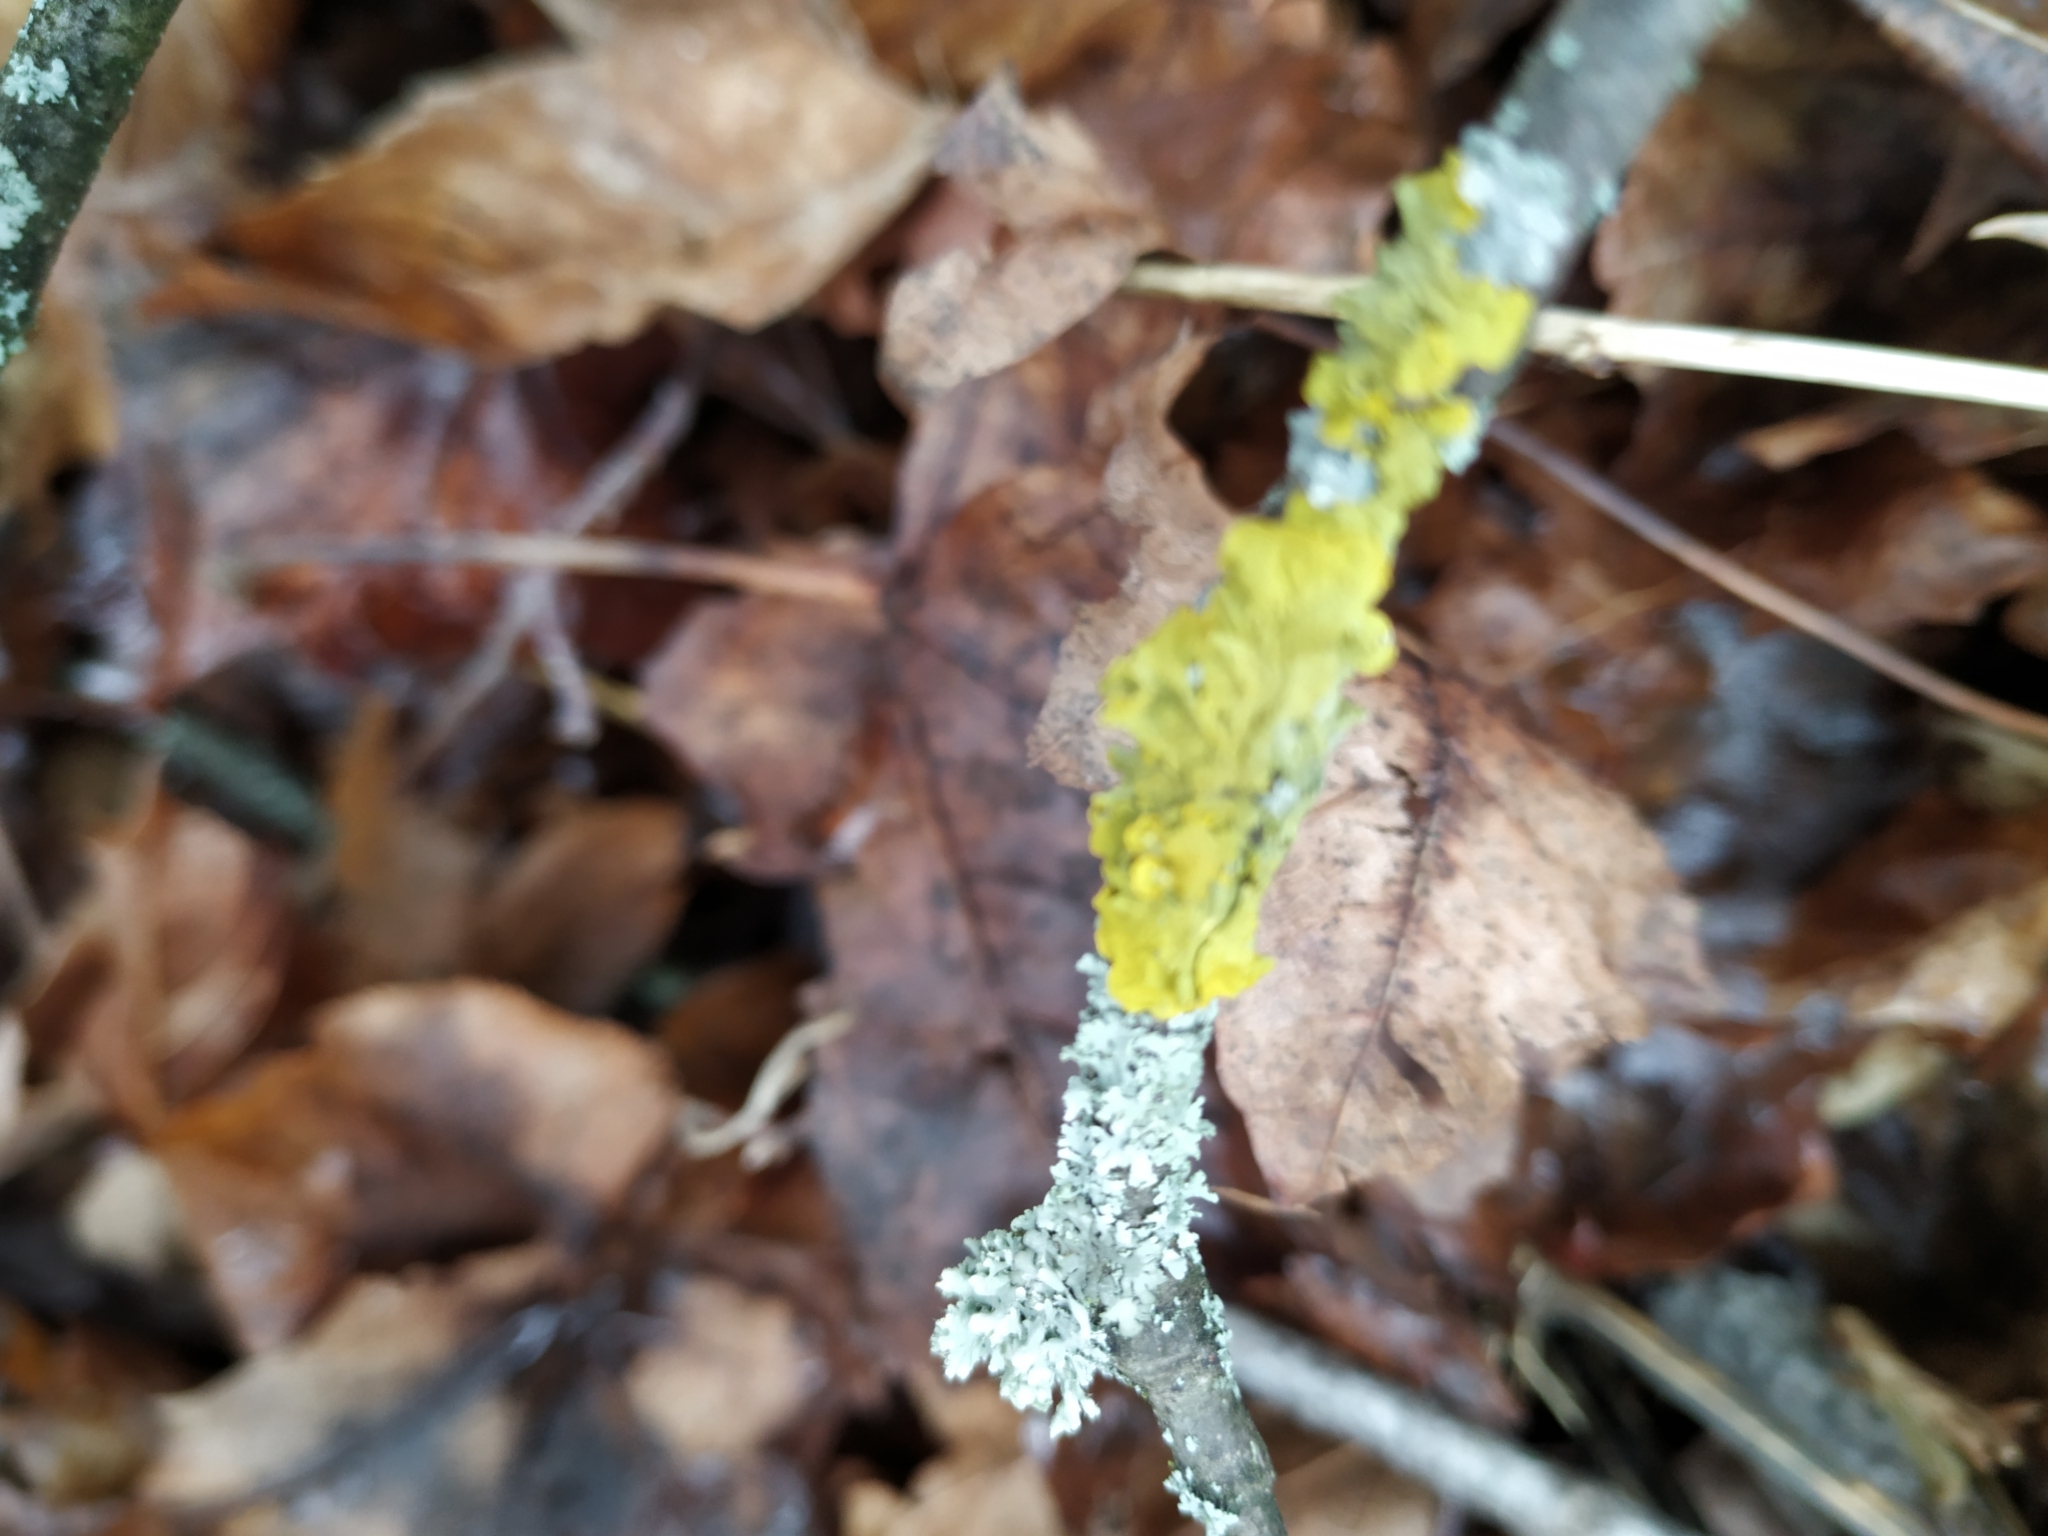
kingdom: Fungi
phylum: Ascomycota
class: Lecanoromycetes
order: Teloschistales
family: Teloschistaceae
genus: Xanthoria
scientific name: Xanthoria parietina
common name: Common orange lichen
